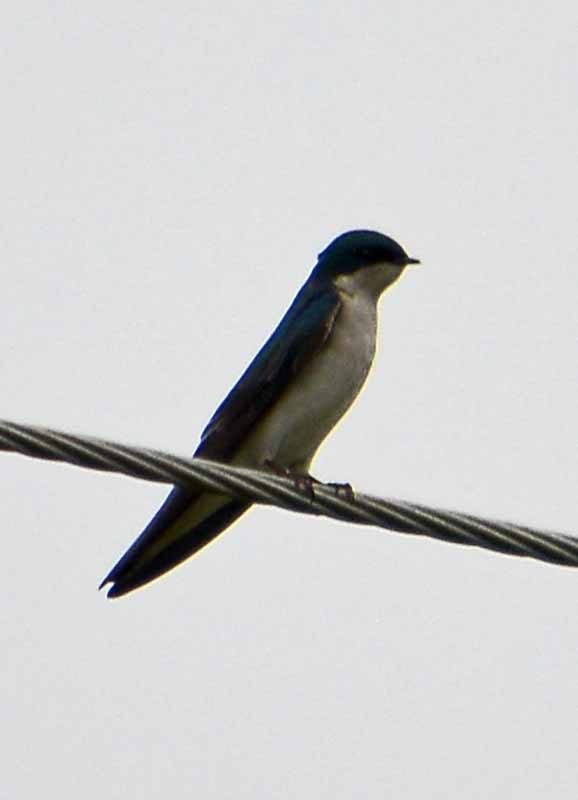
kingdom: Animalia
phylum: Chordata
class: Aves
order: Passeriformes
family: Hirundinidae
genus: Tachycineta
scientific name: Tachycineta bicolor
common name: Tree swallow
